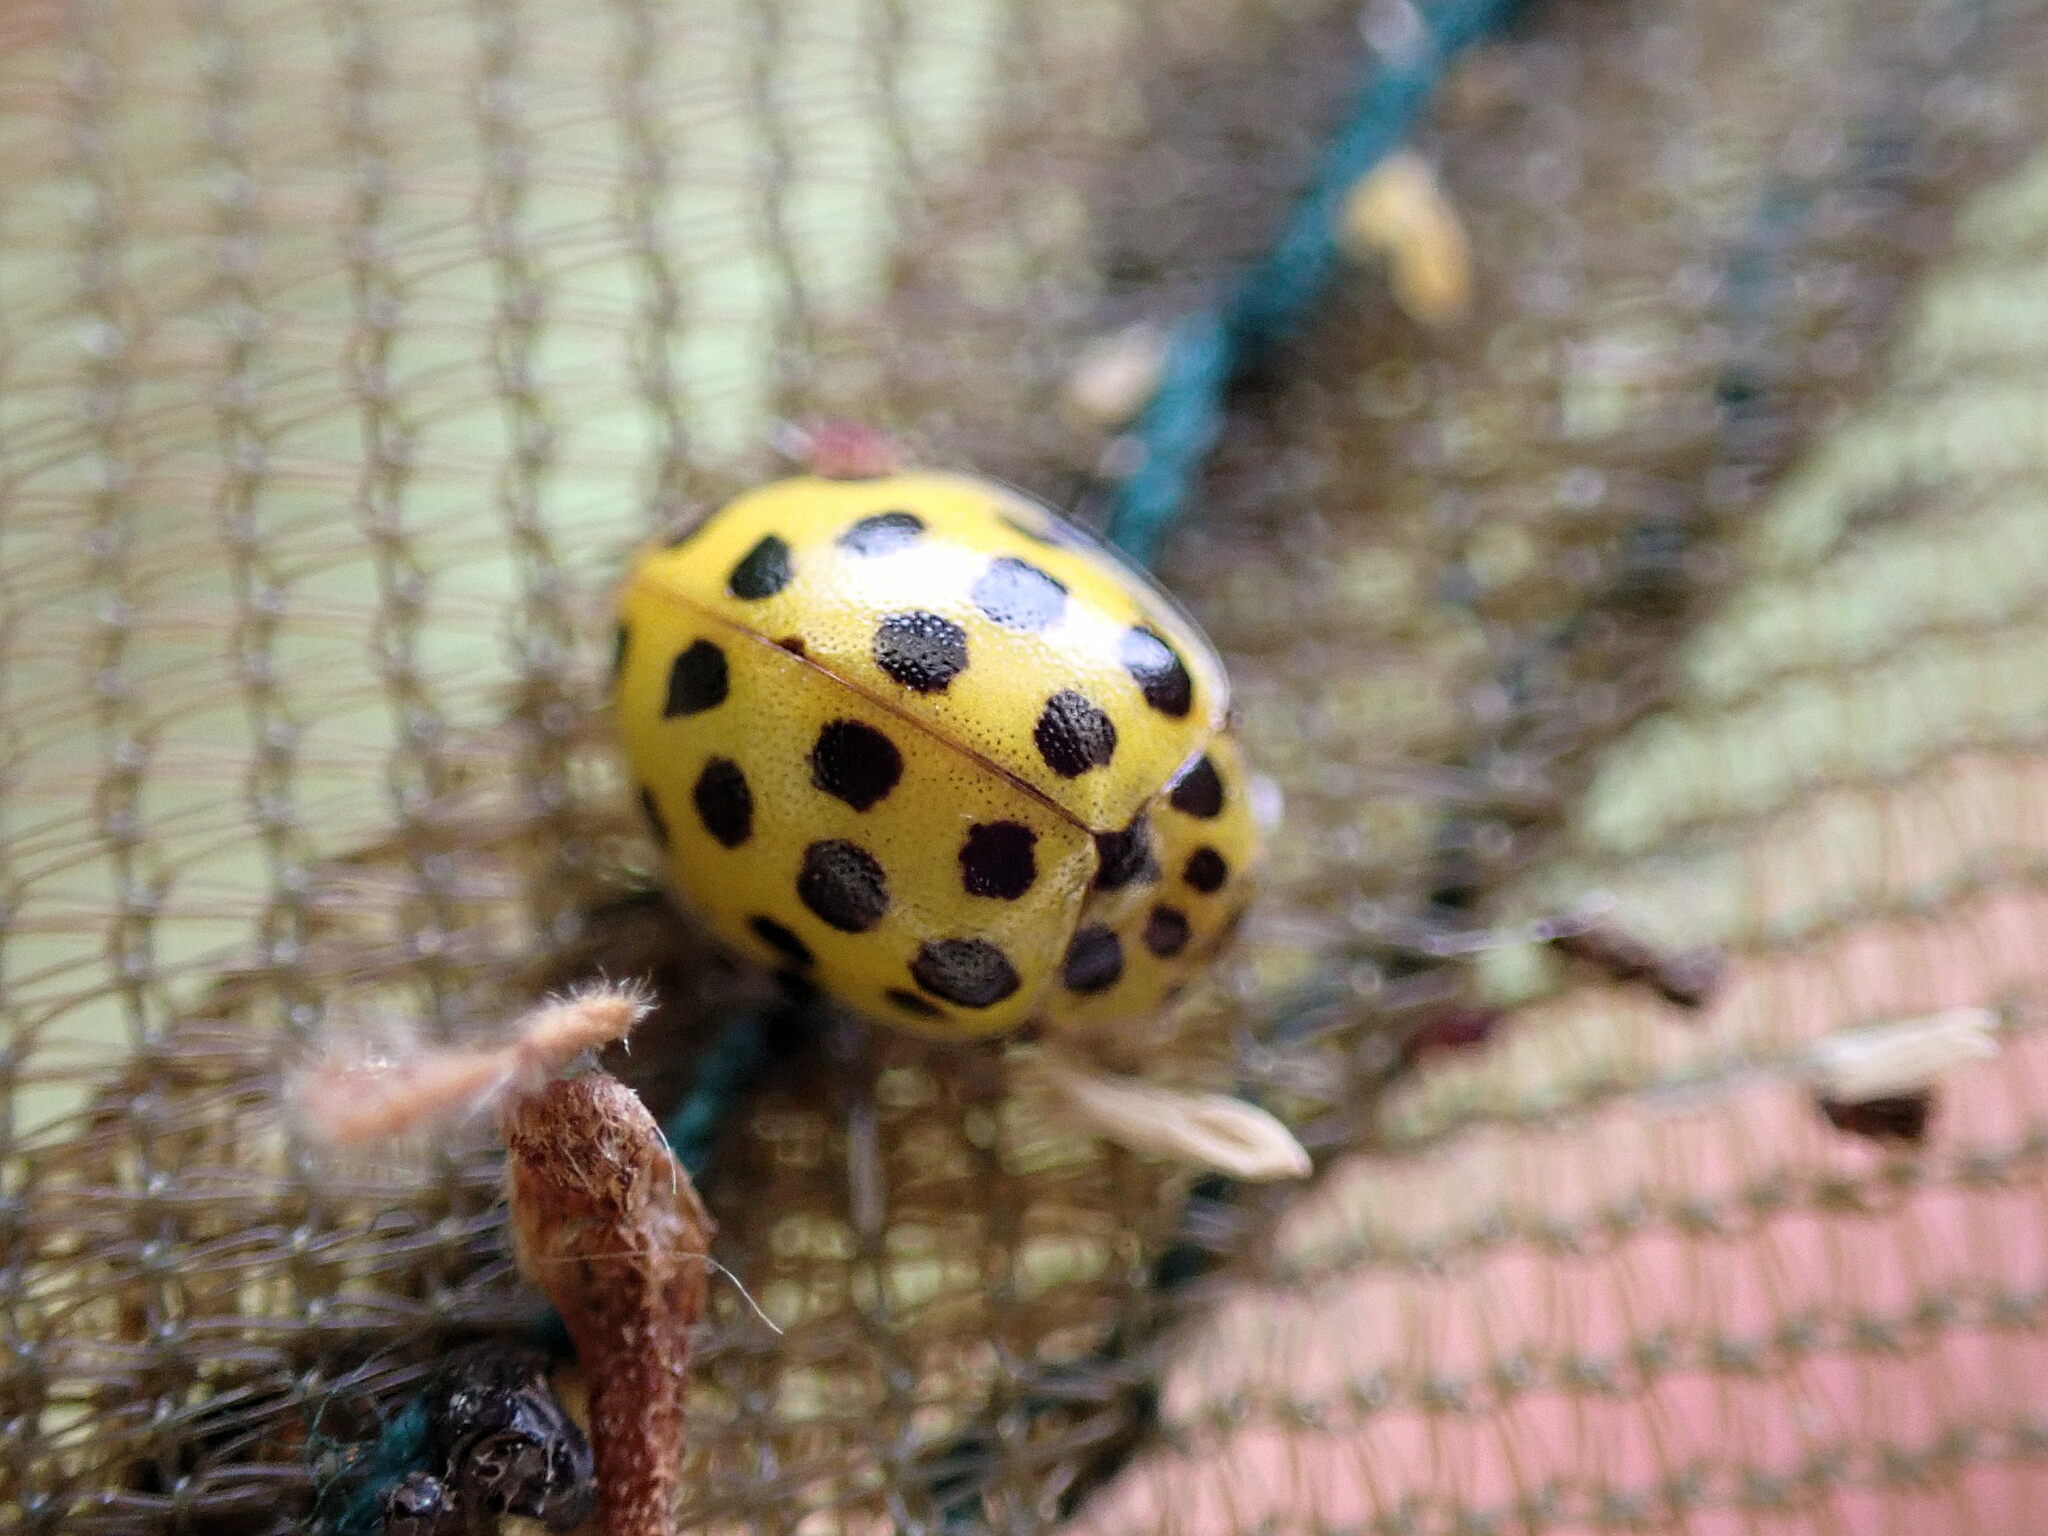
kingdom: Animalia
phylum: Arthropoda
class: Insecta
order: Coleoptera
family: Coccinellidae
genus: Psyllobora
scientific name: Psyllobora vigintiduopunctata
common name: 22-spot ladybird
